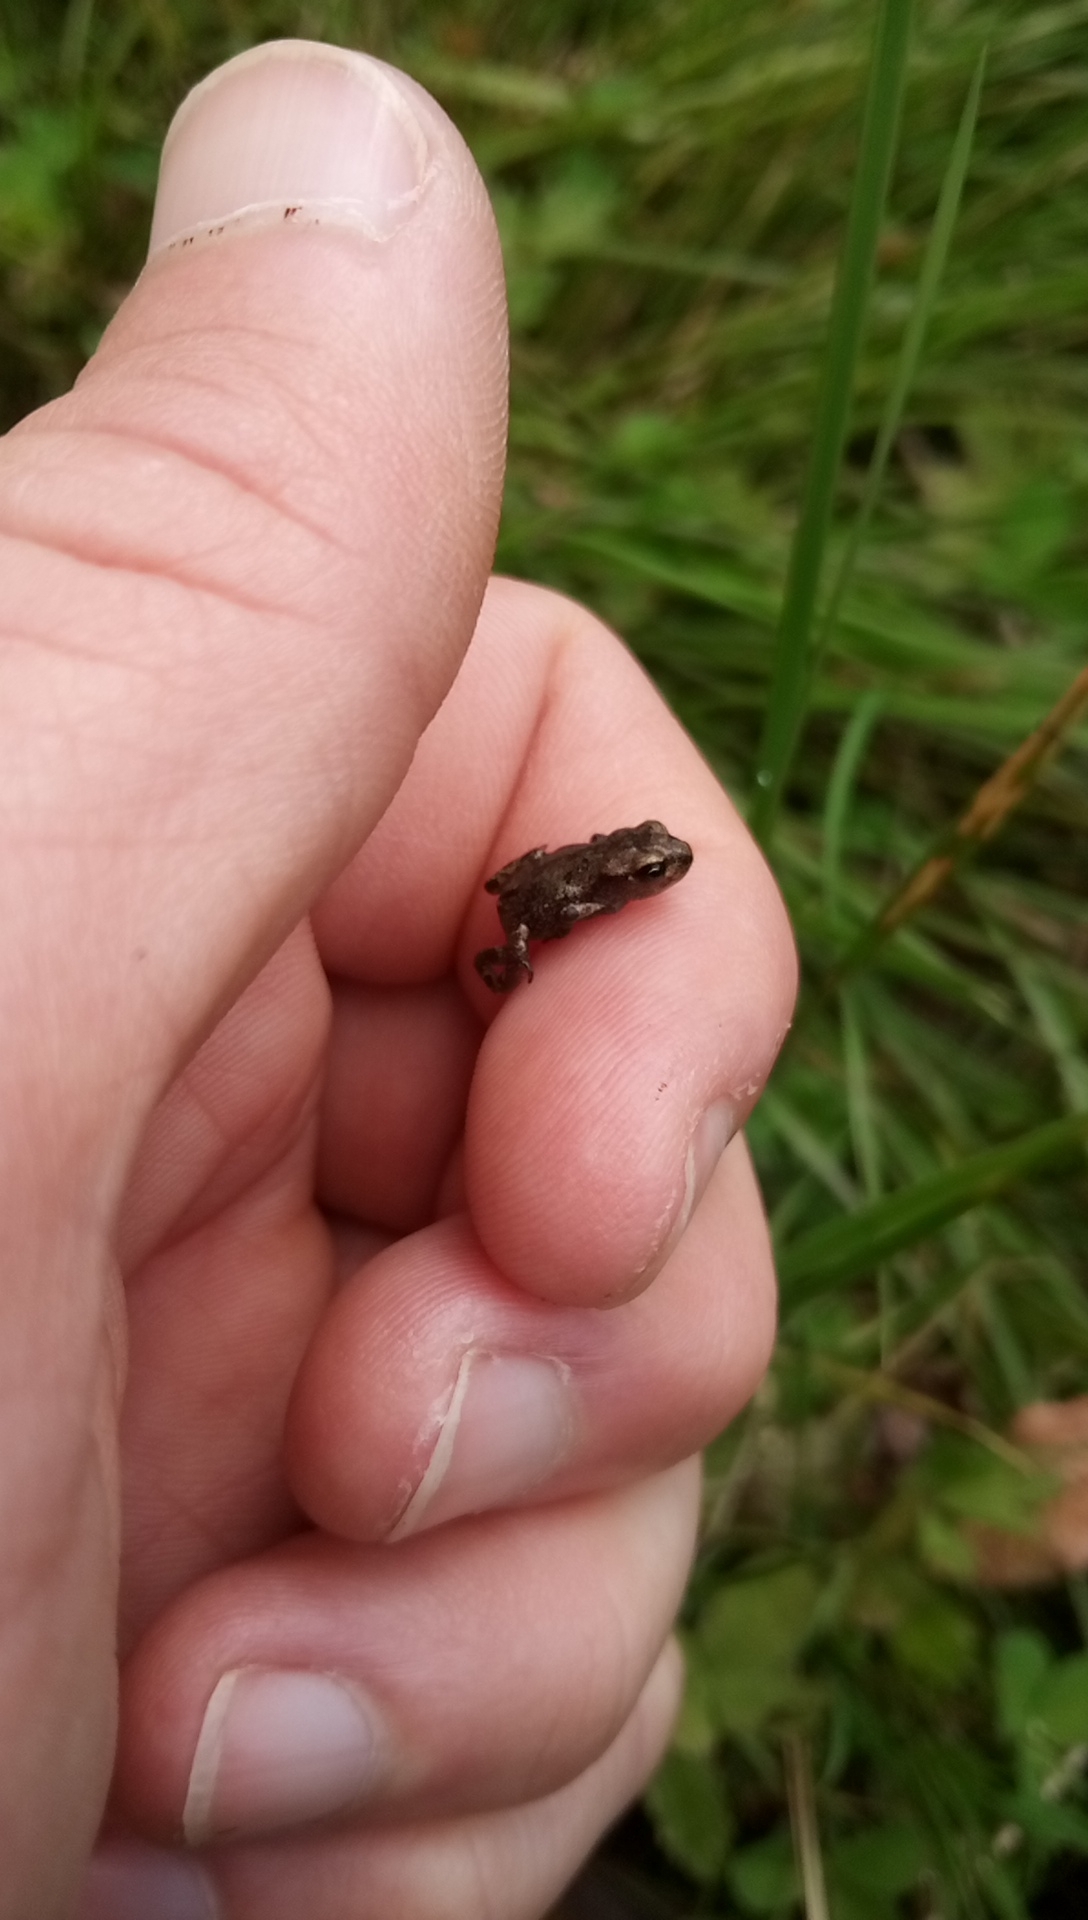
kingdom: Animalia
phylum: Chordata
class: Amphibia
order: Anura
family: Bufonidae
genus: Bufo
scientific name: Bufo bufo
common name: Common toad
